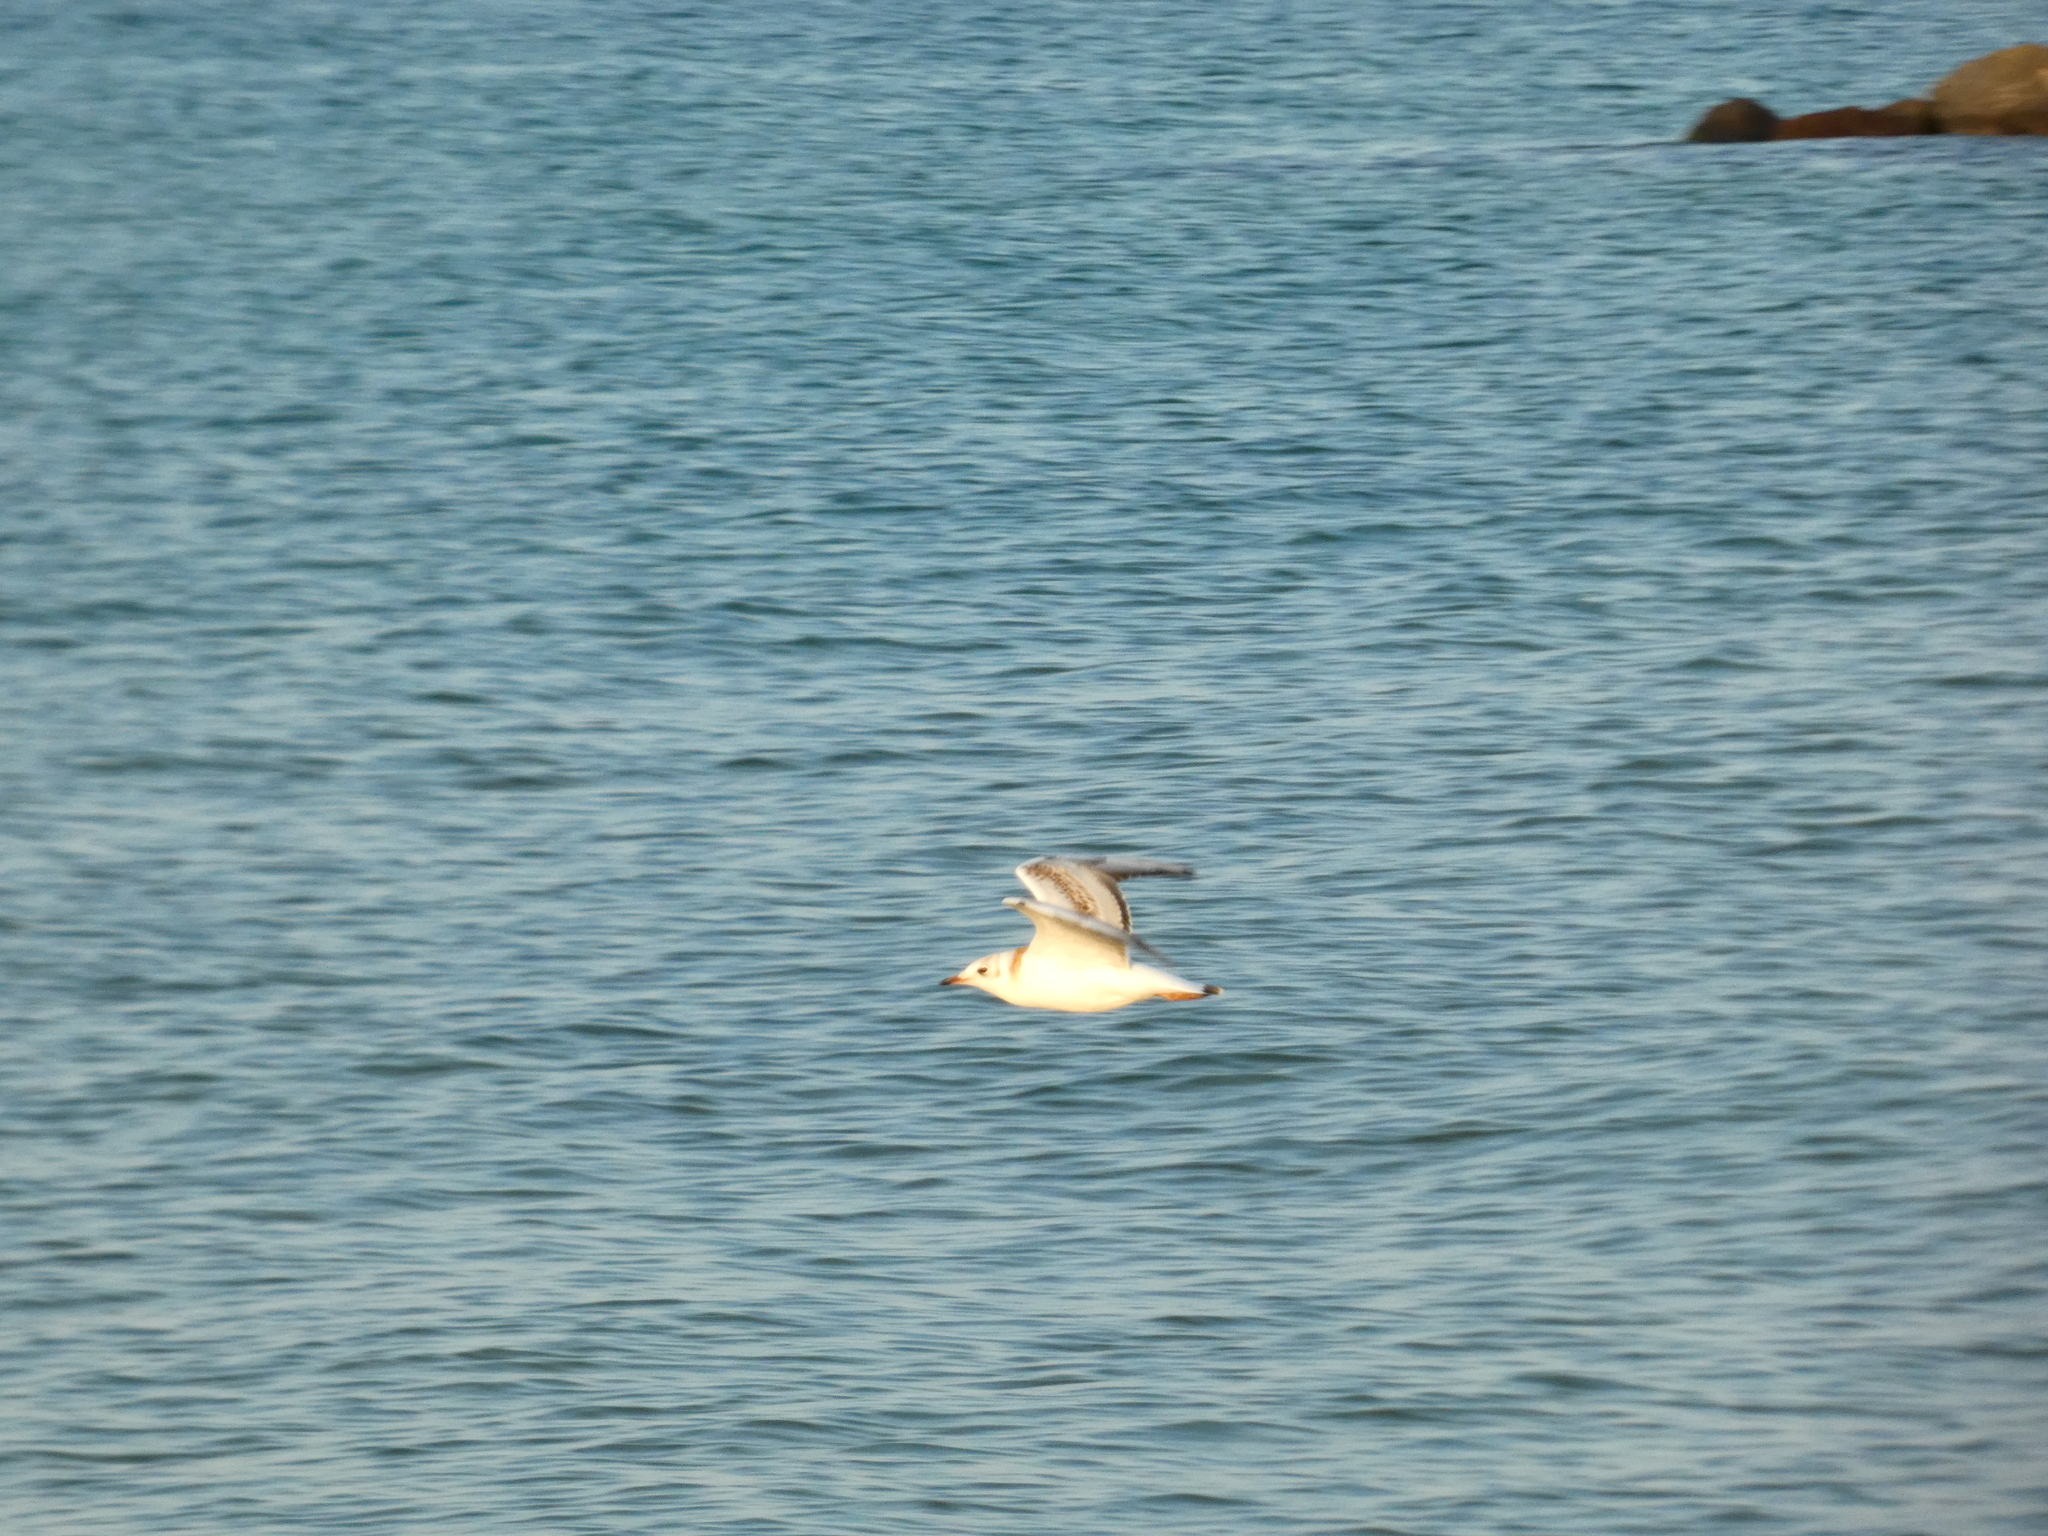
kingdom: Animalia
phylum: Chordata
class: Aves
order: Charadriiformes
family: Laridae
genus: Chroicocephalus
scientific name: Chroicocephalus ridibundus
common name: Black-headed gull
